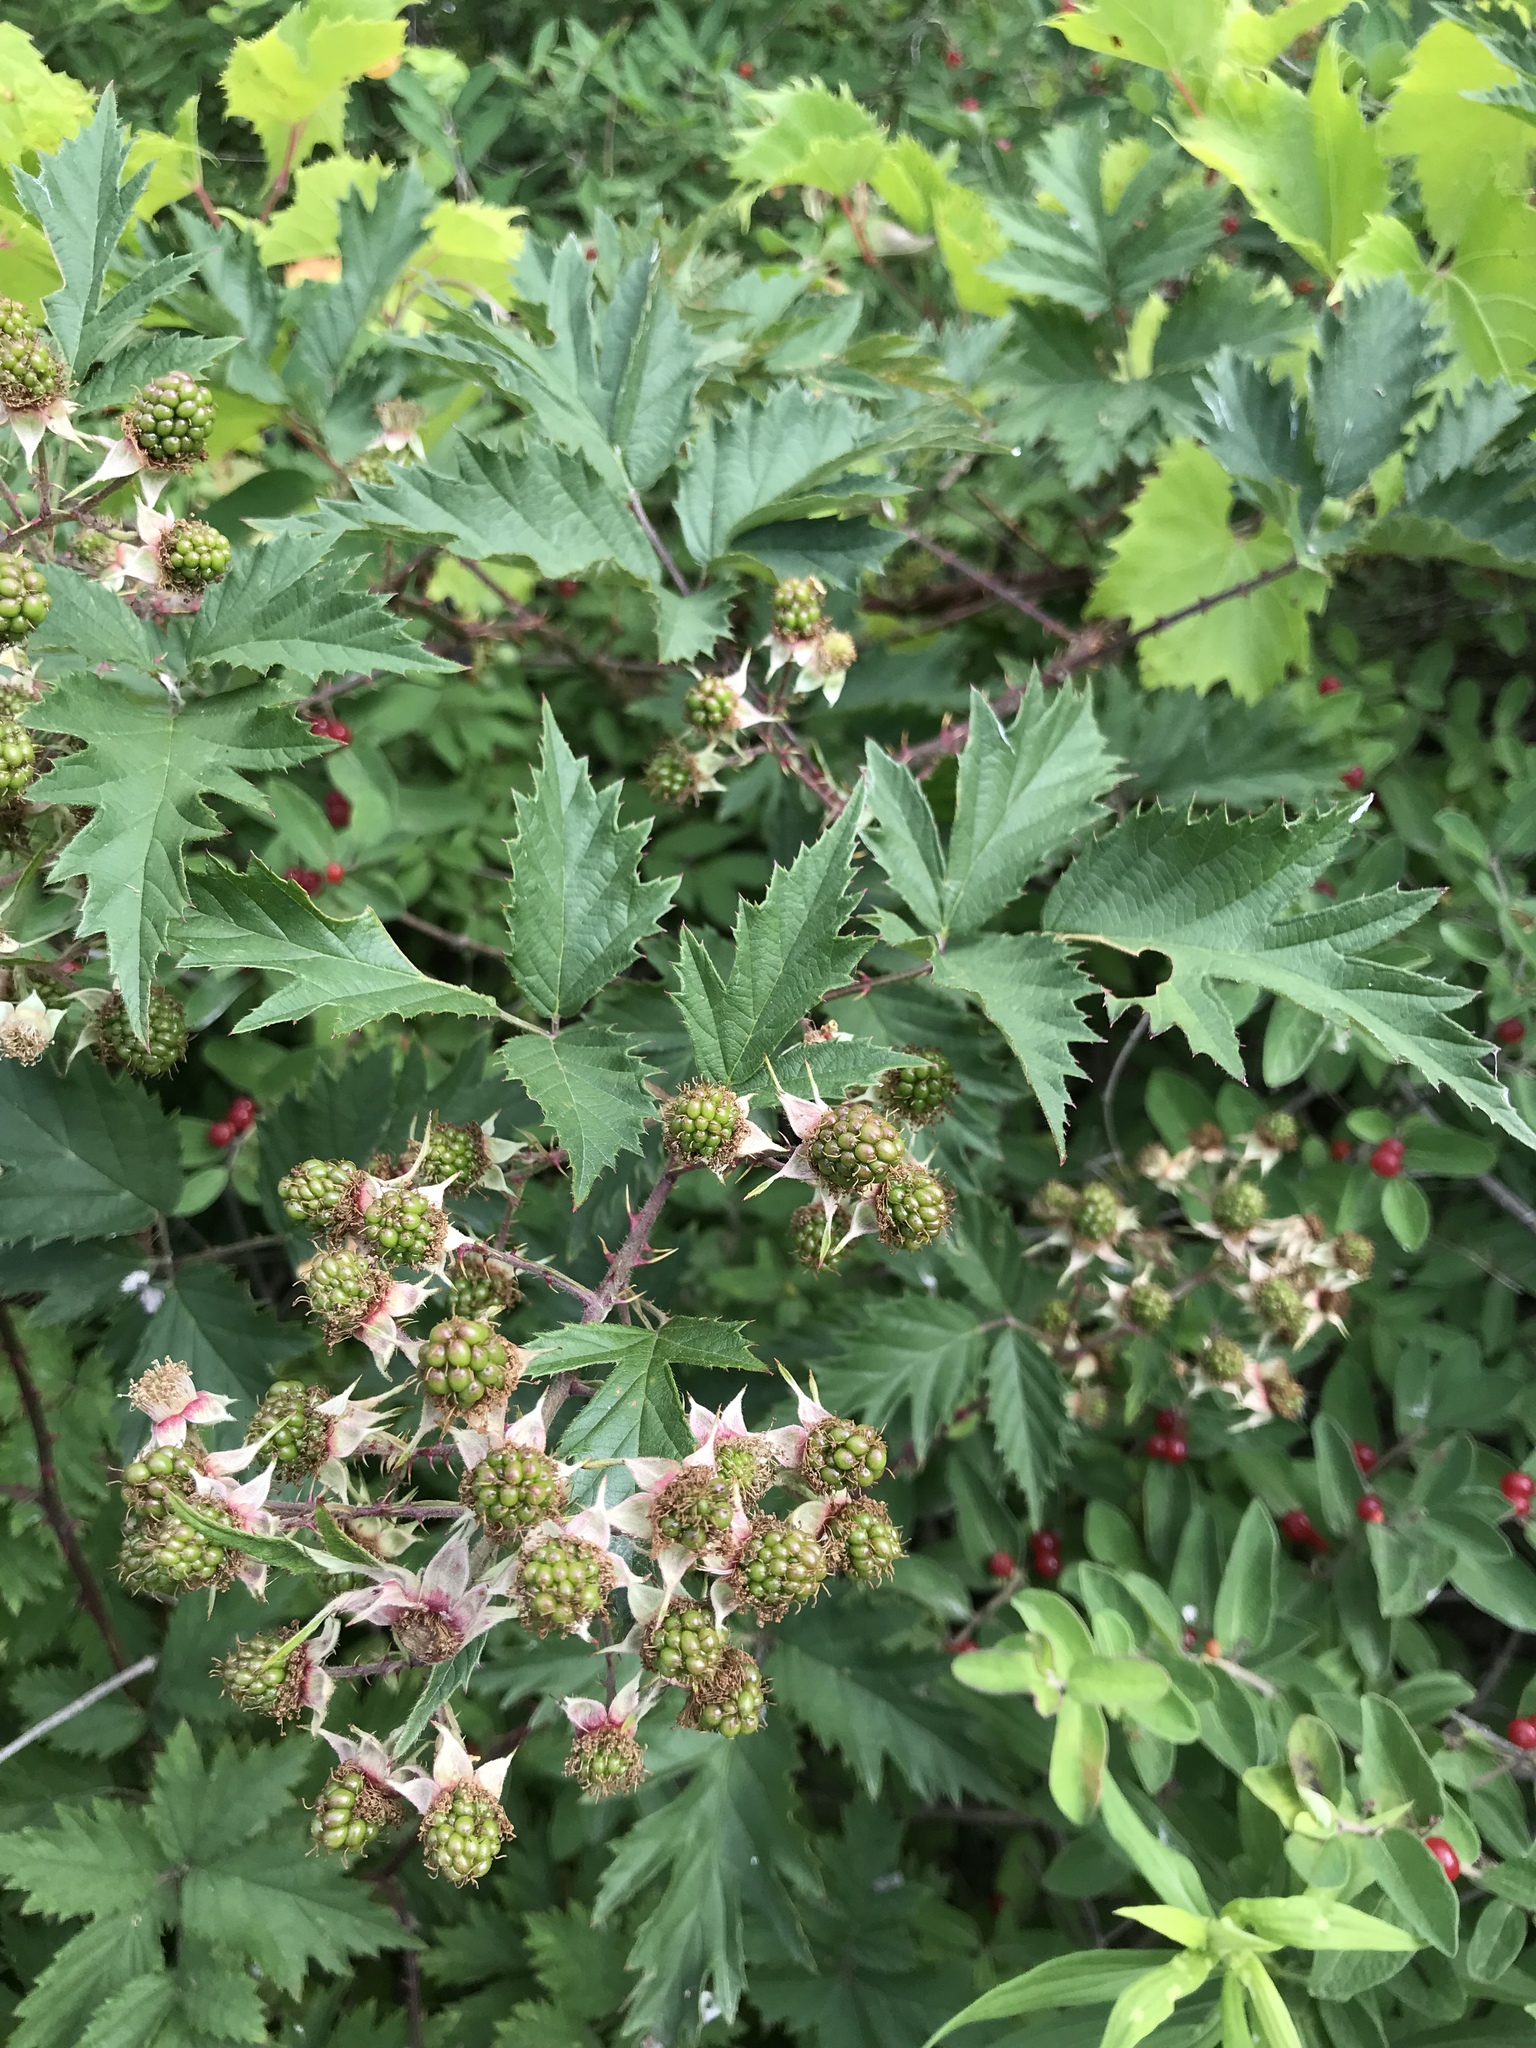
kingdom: Plantae
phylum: Tracheophyta
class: Magnoliopsida
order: Rosales
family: Rosaceae
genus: Rubus
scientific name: Rubus laciniatus
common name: Evergreen blackberry
